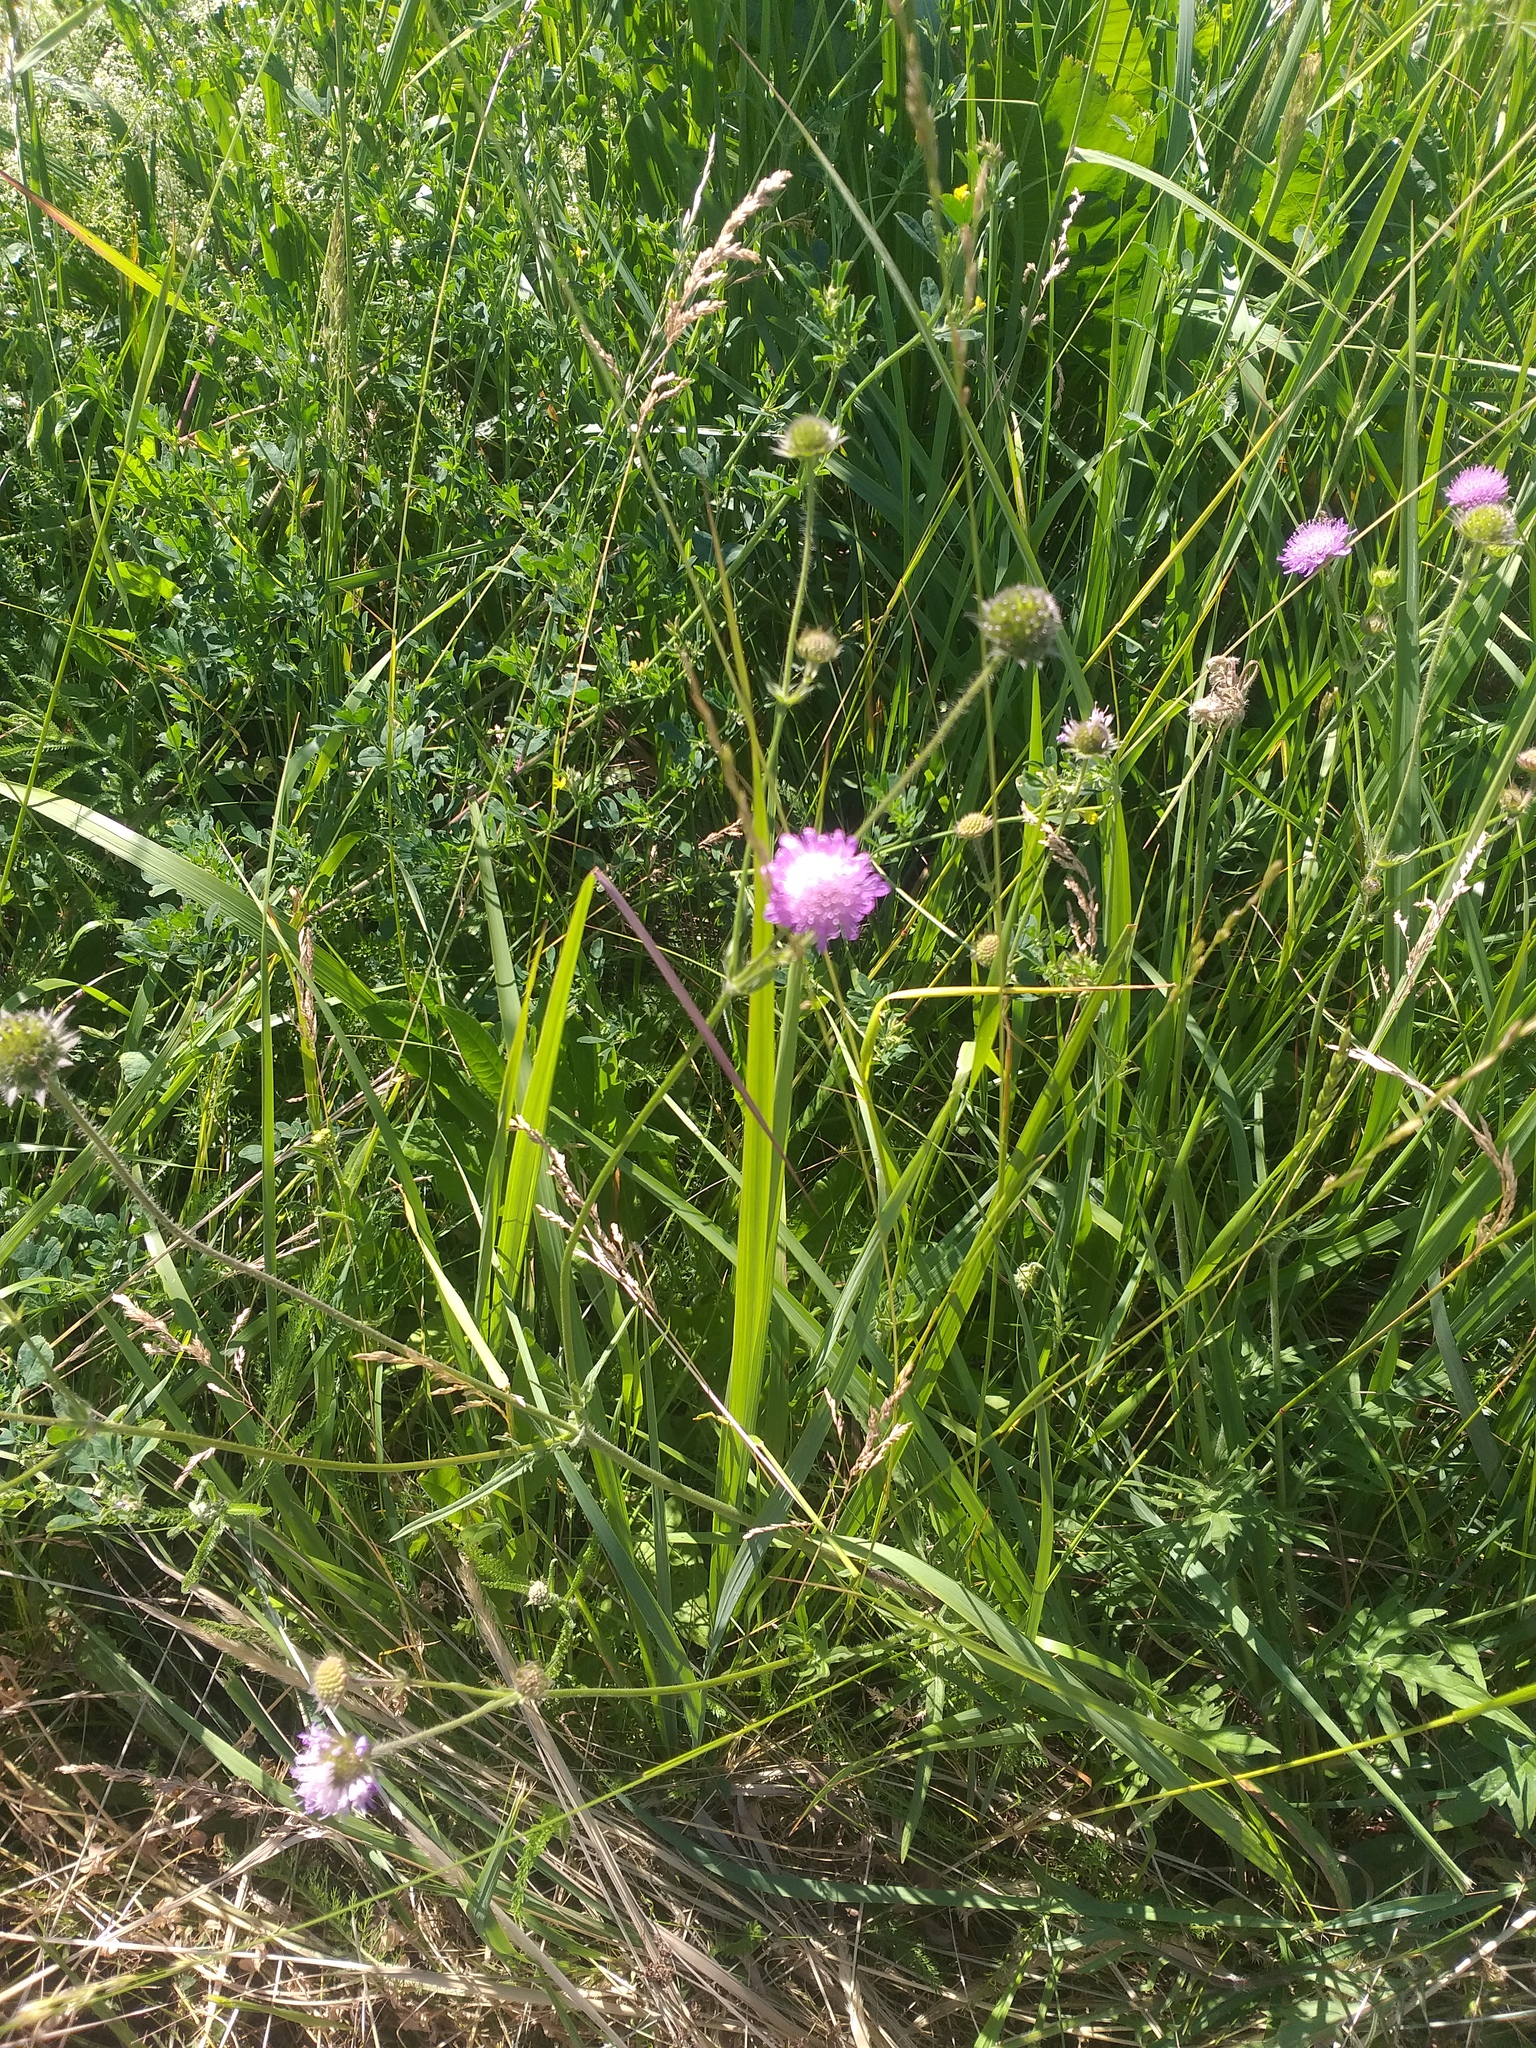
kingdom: Plantae
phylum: Tracheophyta
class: Magnoliopsida
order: Dipsacales
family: Caprifoliaceae
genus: Knautia
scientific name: Knautia arvensis
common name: Field scabiosa
